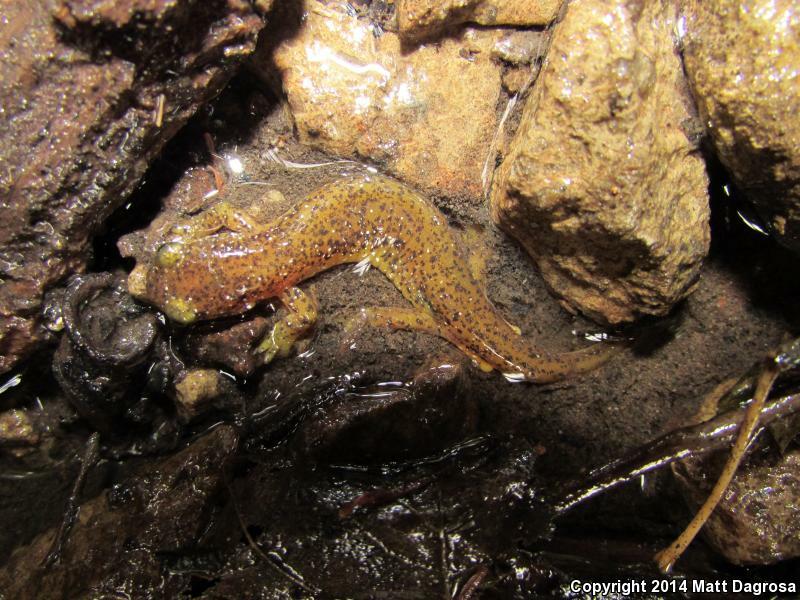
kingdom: Animalia
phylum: Chordata
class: Amphibia
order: Caudata
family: Rhyacotritonidae
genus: Rhyacotriton
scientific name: Rhyacotriton cascadae
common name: Cascade torrent salamander
